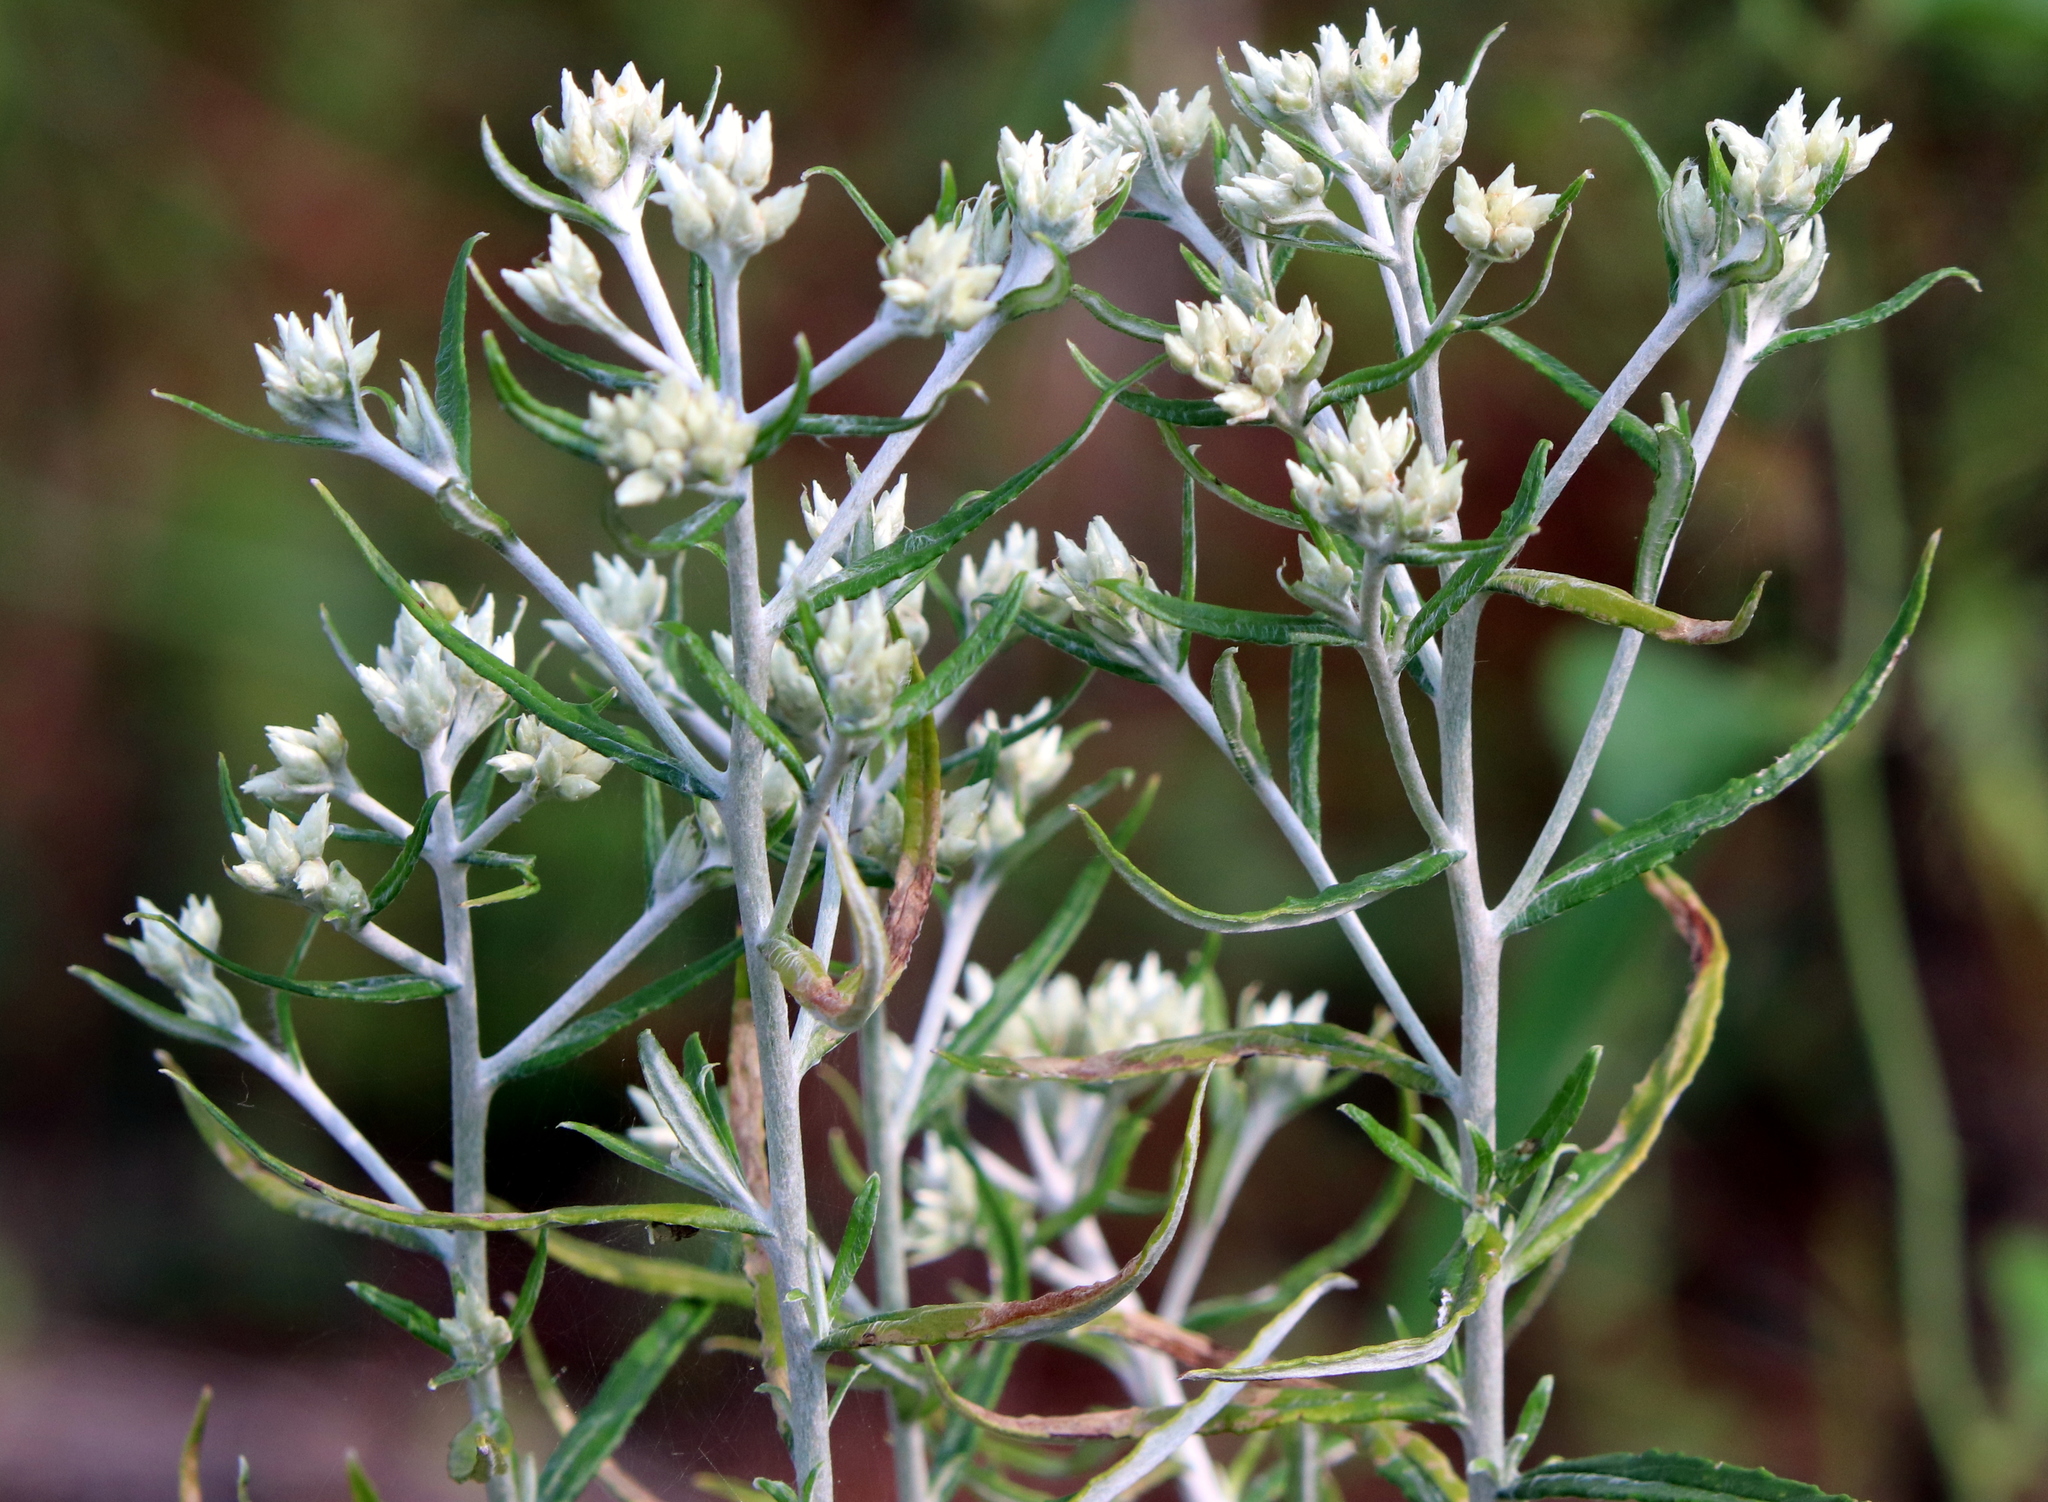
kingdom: Plantae
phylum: Tracheophyta
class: Magnoliopsida
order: Asterales
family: Asteraceae
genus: Pseudognaphalium
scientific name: Pseudognaphalium obtusifolium
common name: Eastern rabbit-tobacco
